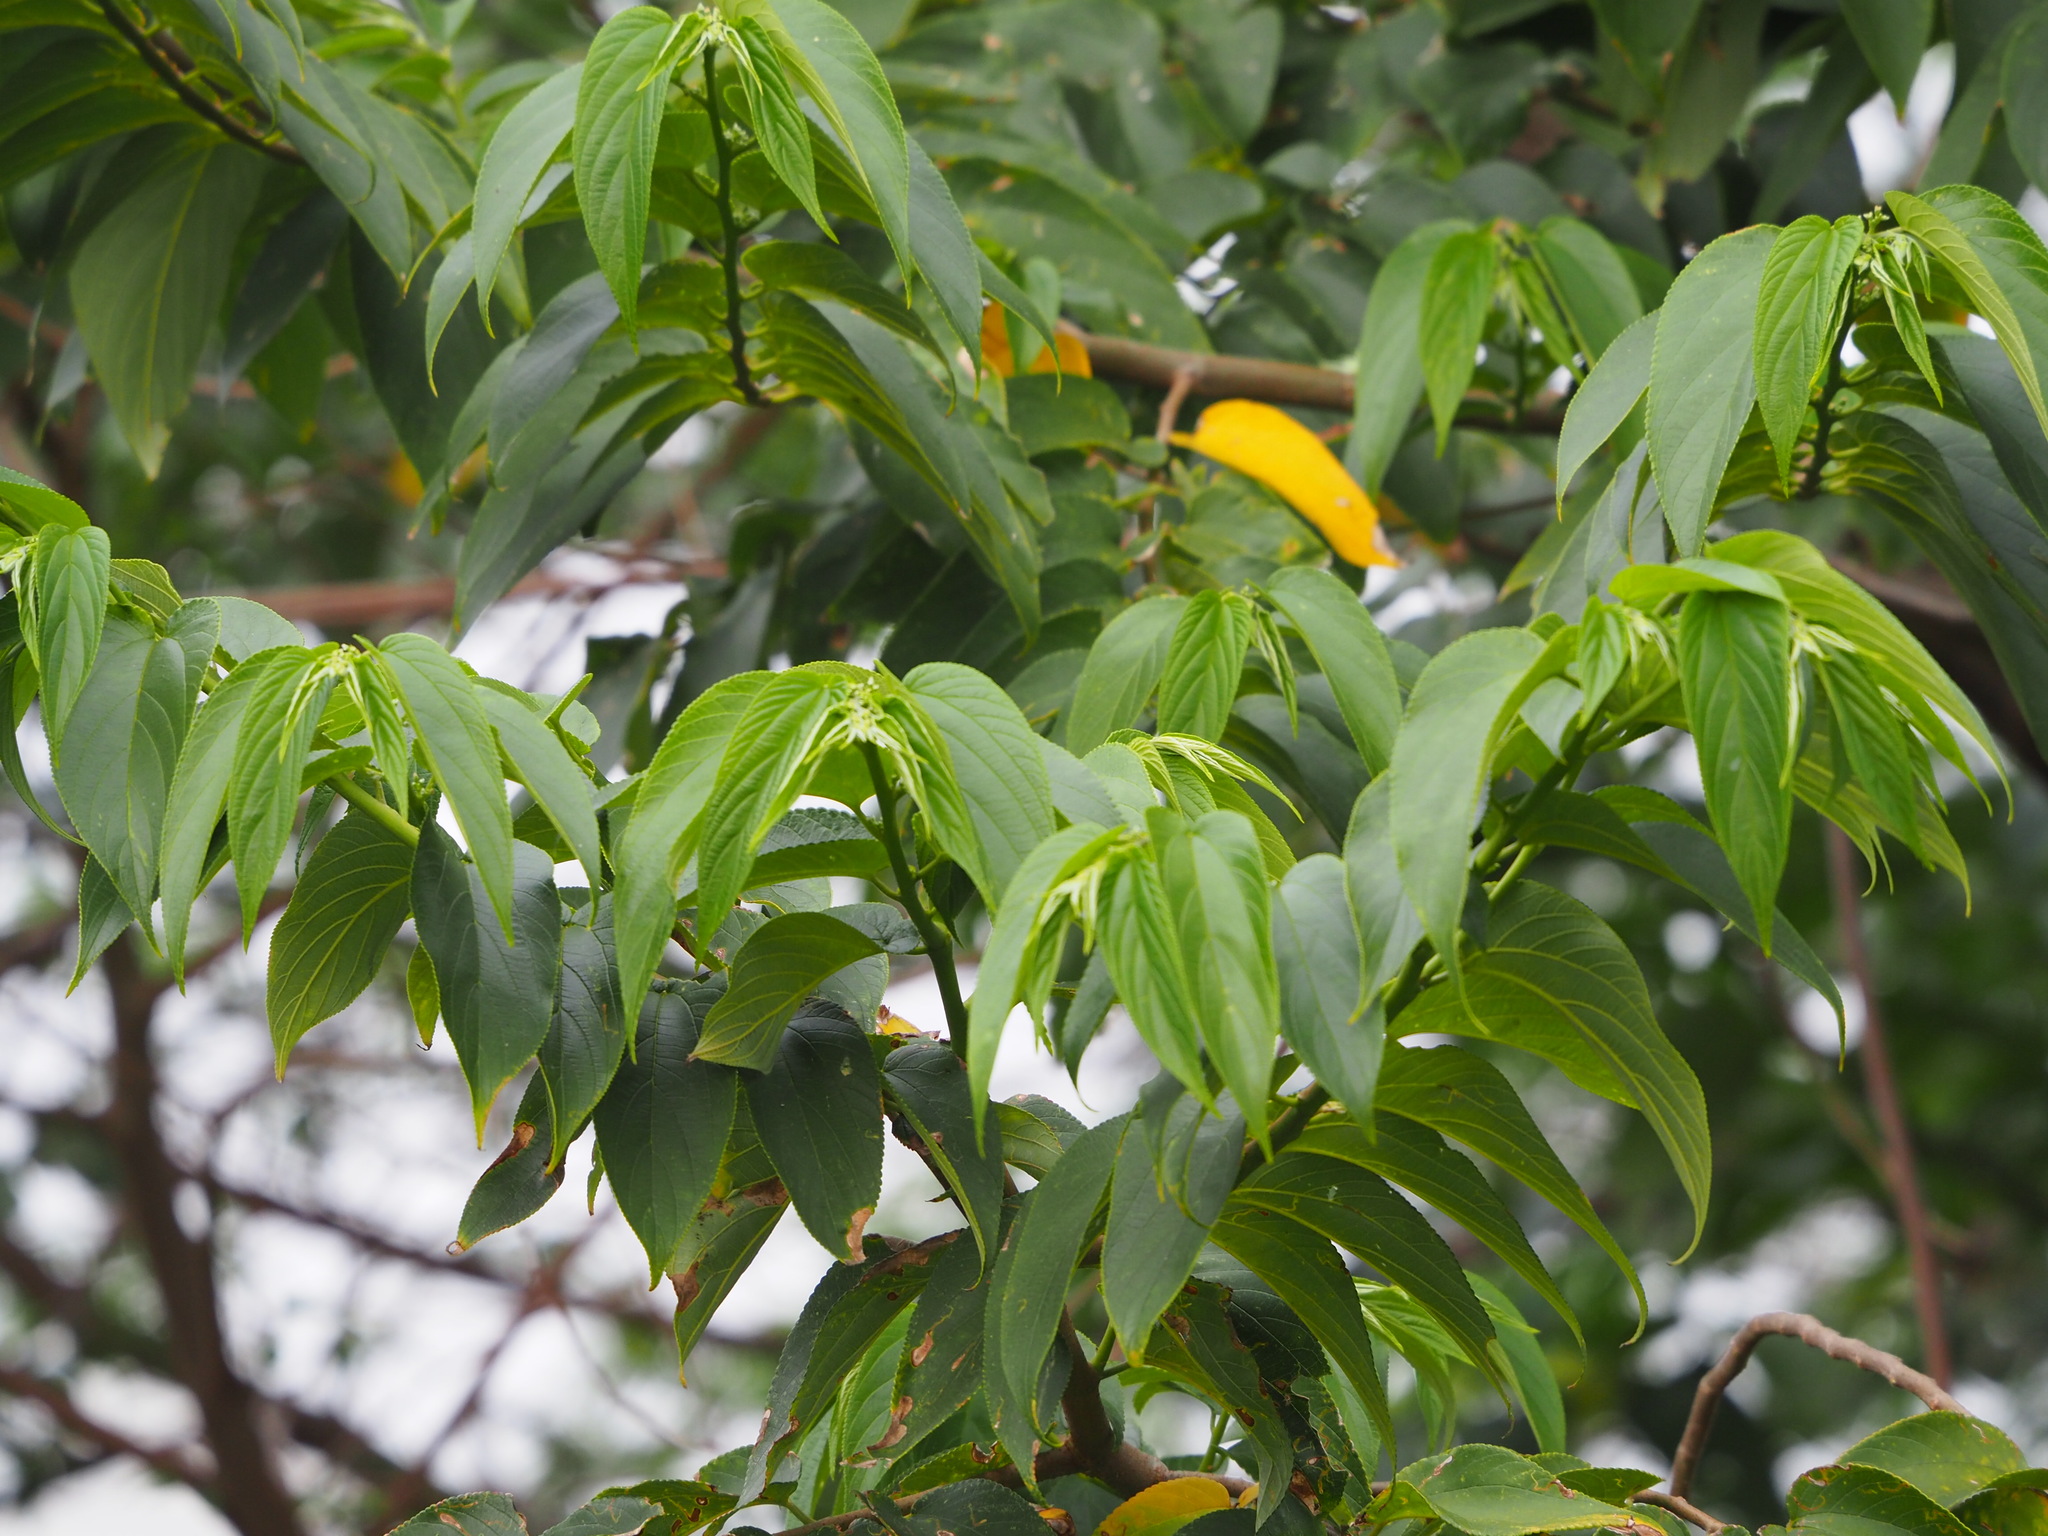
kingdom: Plantae
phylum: Tracheophyta
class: Magnoliopsida
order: Rosales
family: Cannabaceae
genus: Trema
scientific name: Trema orientale
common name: Indian charcoal tree
